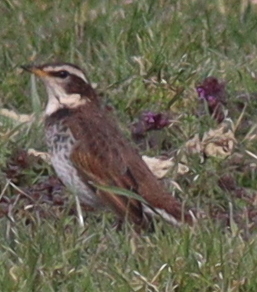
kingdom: Animalia
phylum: Chordata
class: Aves
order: Passeriformes
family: Turdidae
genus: Turdus
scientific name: Turdus eunomus
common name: Dusky thrush
